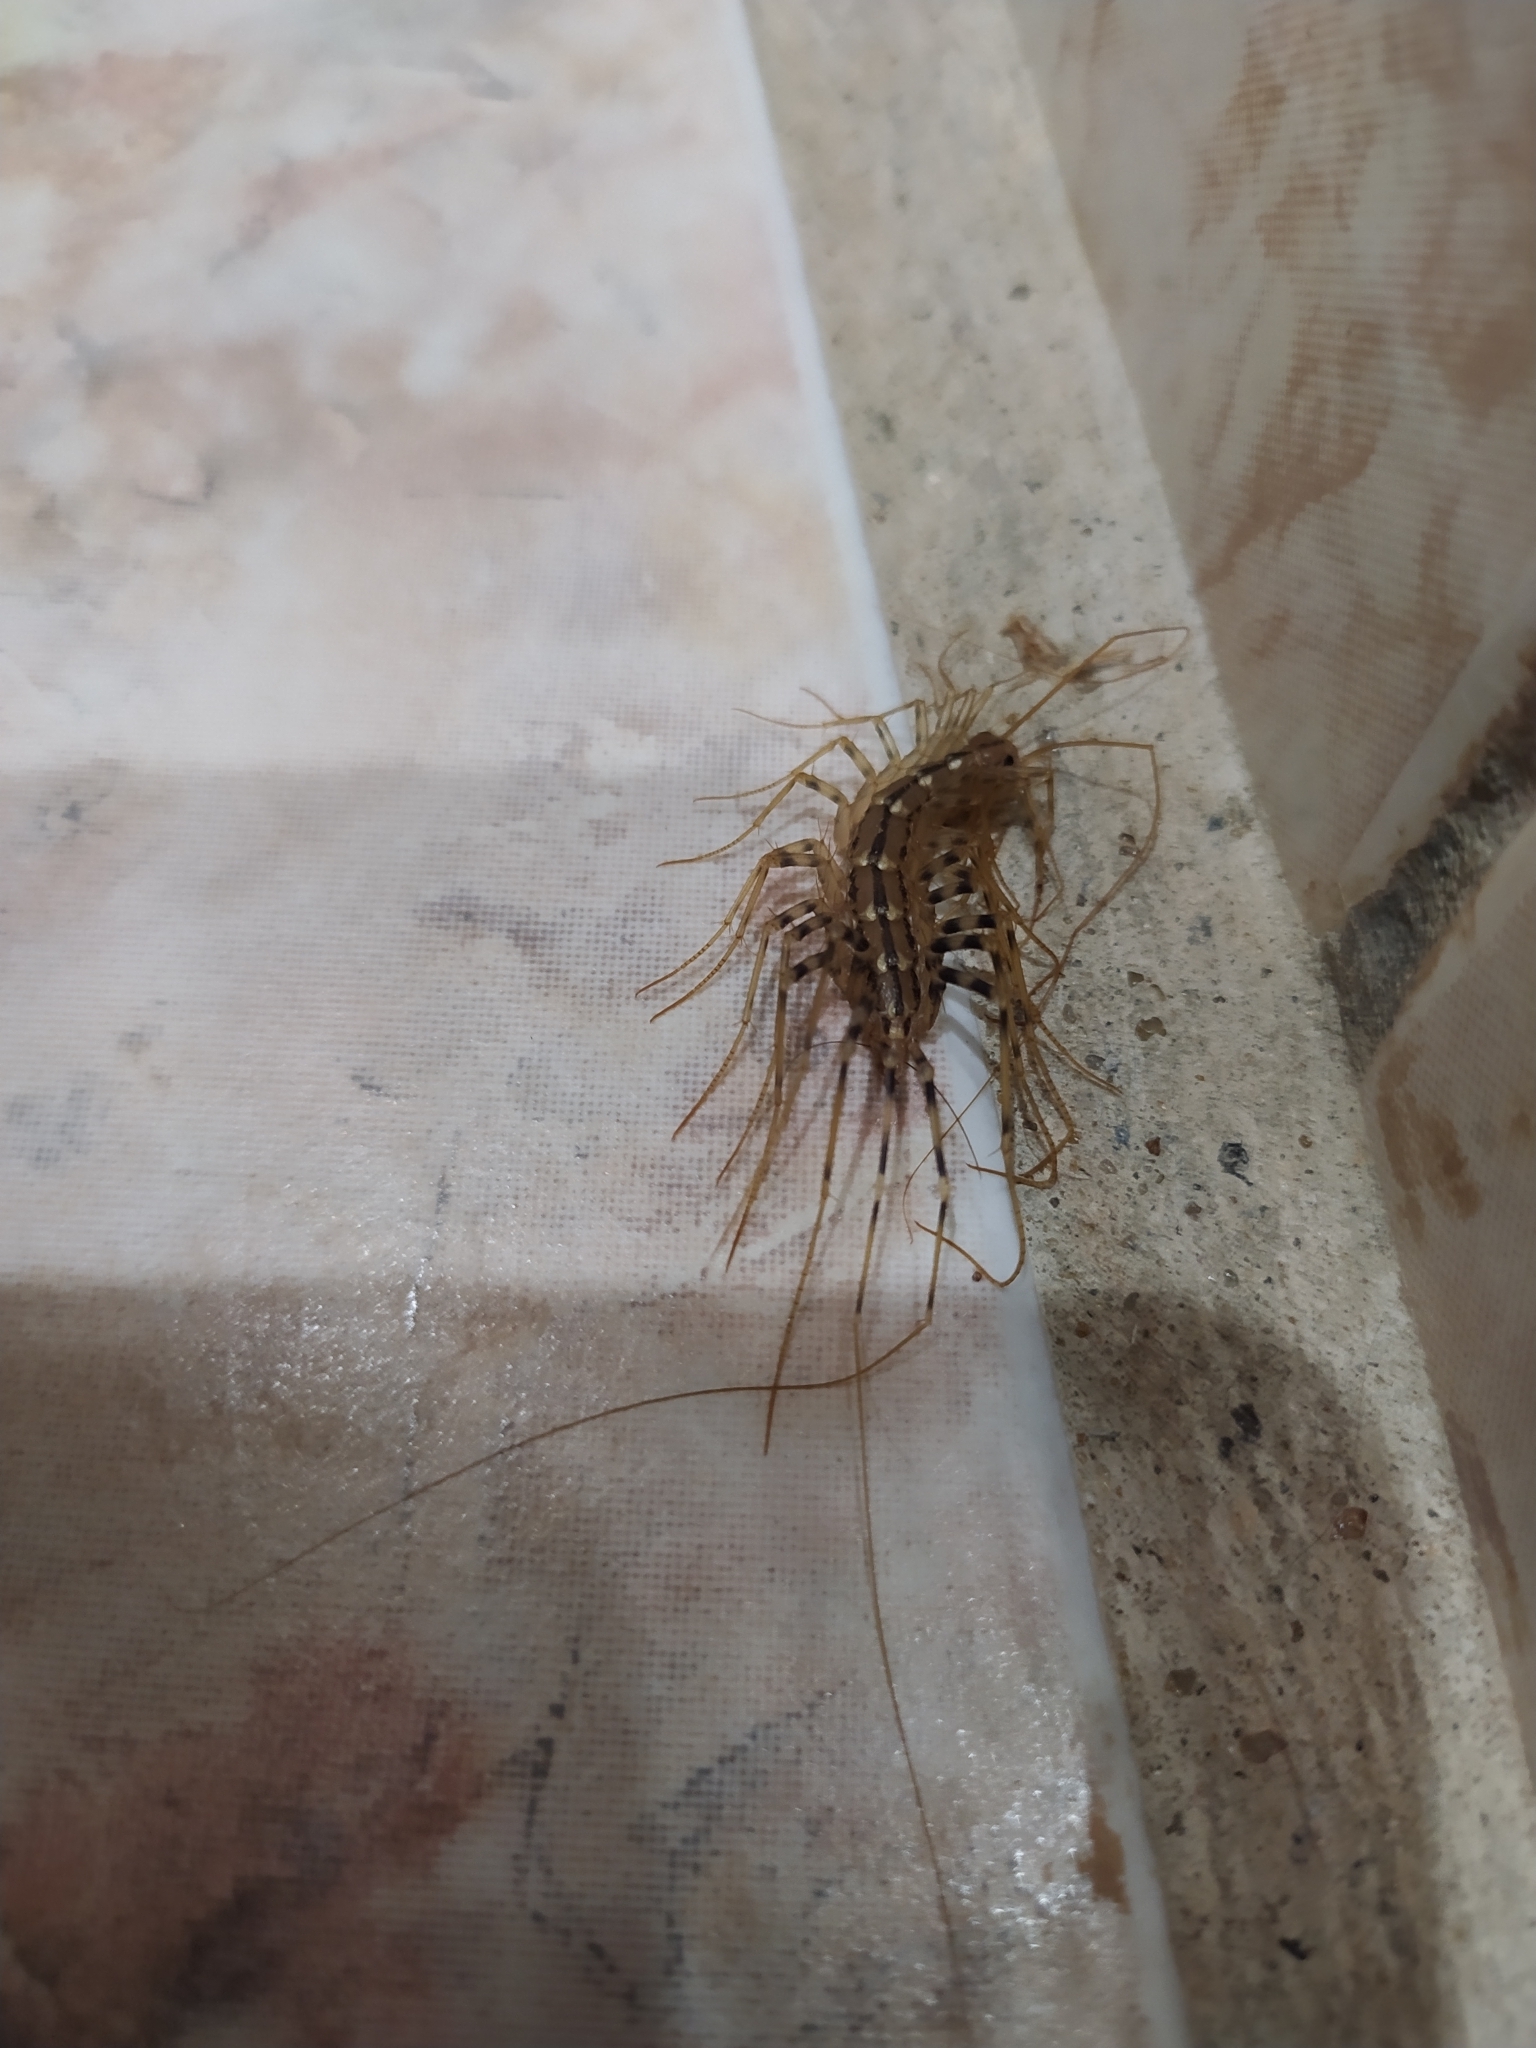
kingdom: Animalia
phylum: Arthropoda
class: Chilopoda
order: Scutigeromorpha
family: Scutigeridae
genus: Scutigera
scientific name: Scutigera coleoptrata
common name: House centipede
